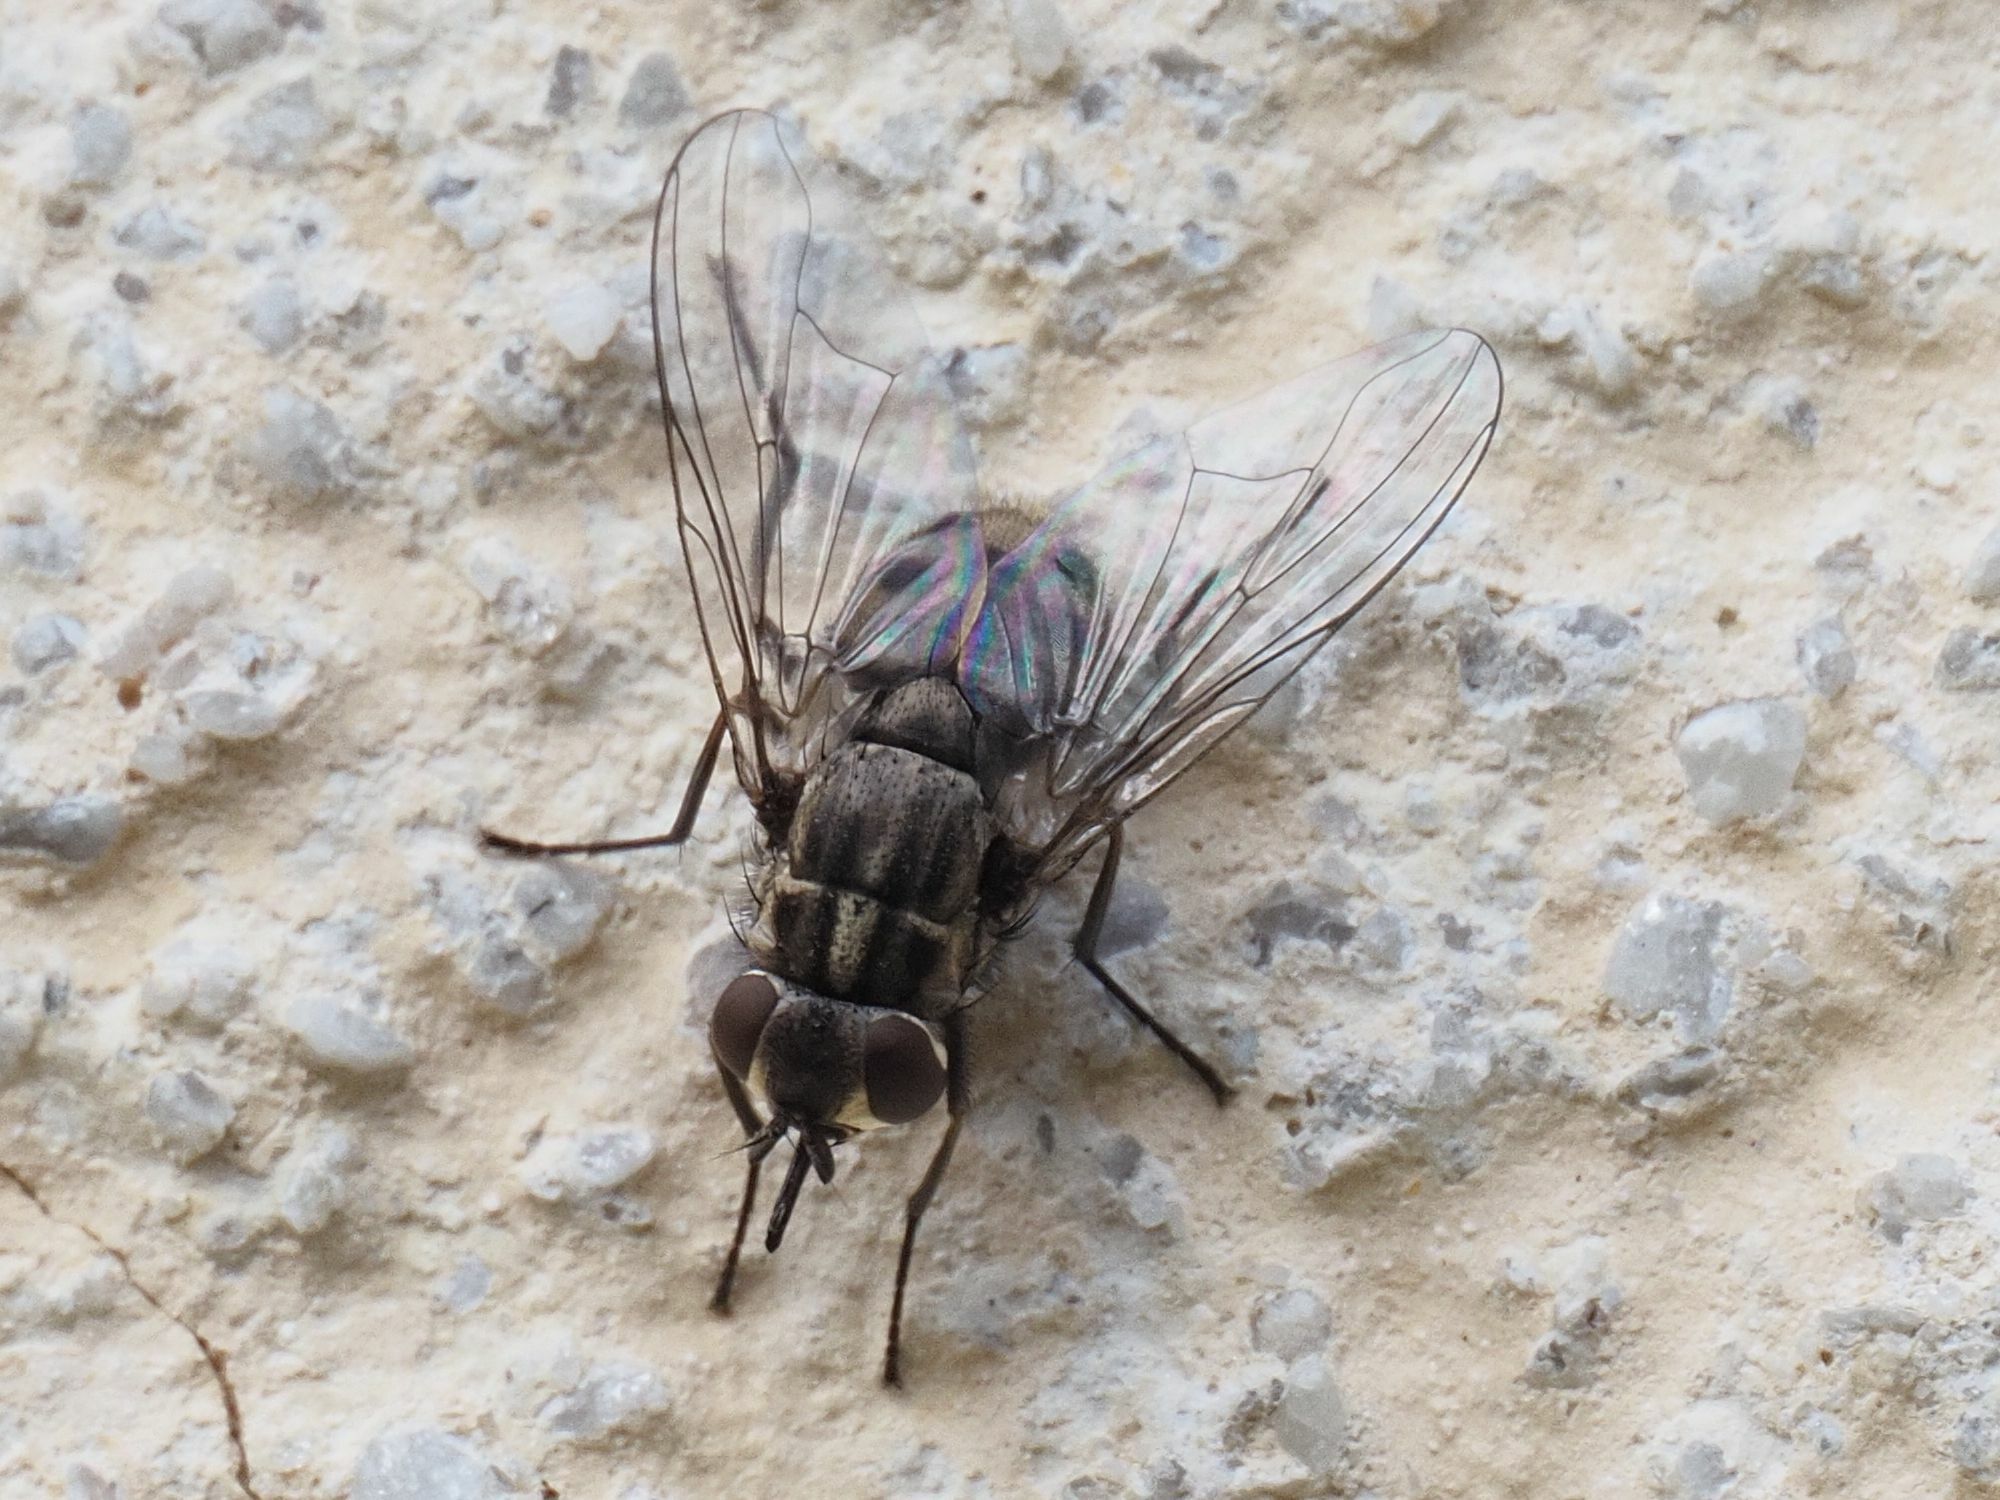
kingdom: Animalia
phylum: Arthropoda
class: Insecta
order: Diptera
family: Muscidae
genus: Stomoxys
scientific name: Stomoxys calcitrans
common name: Stable fly
